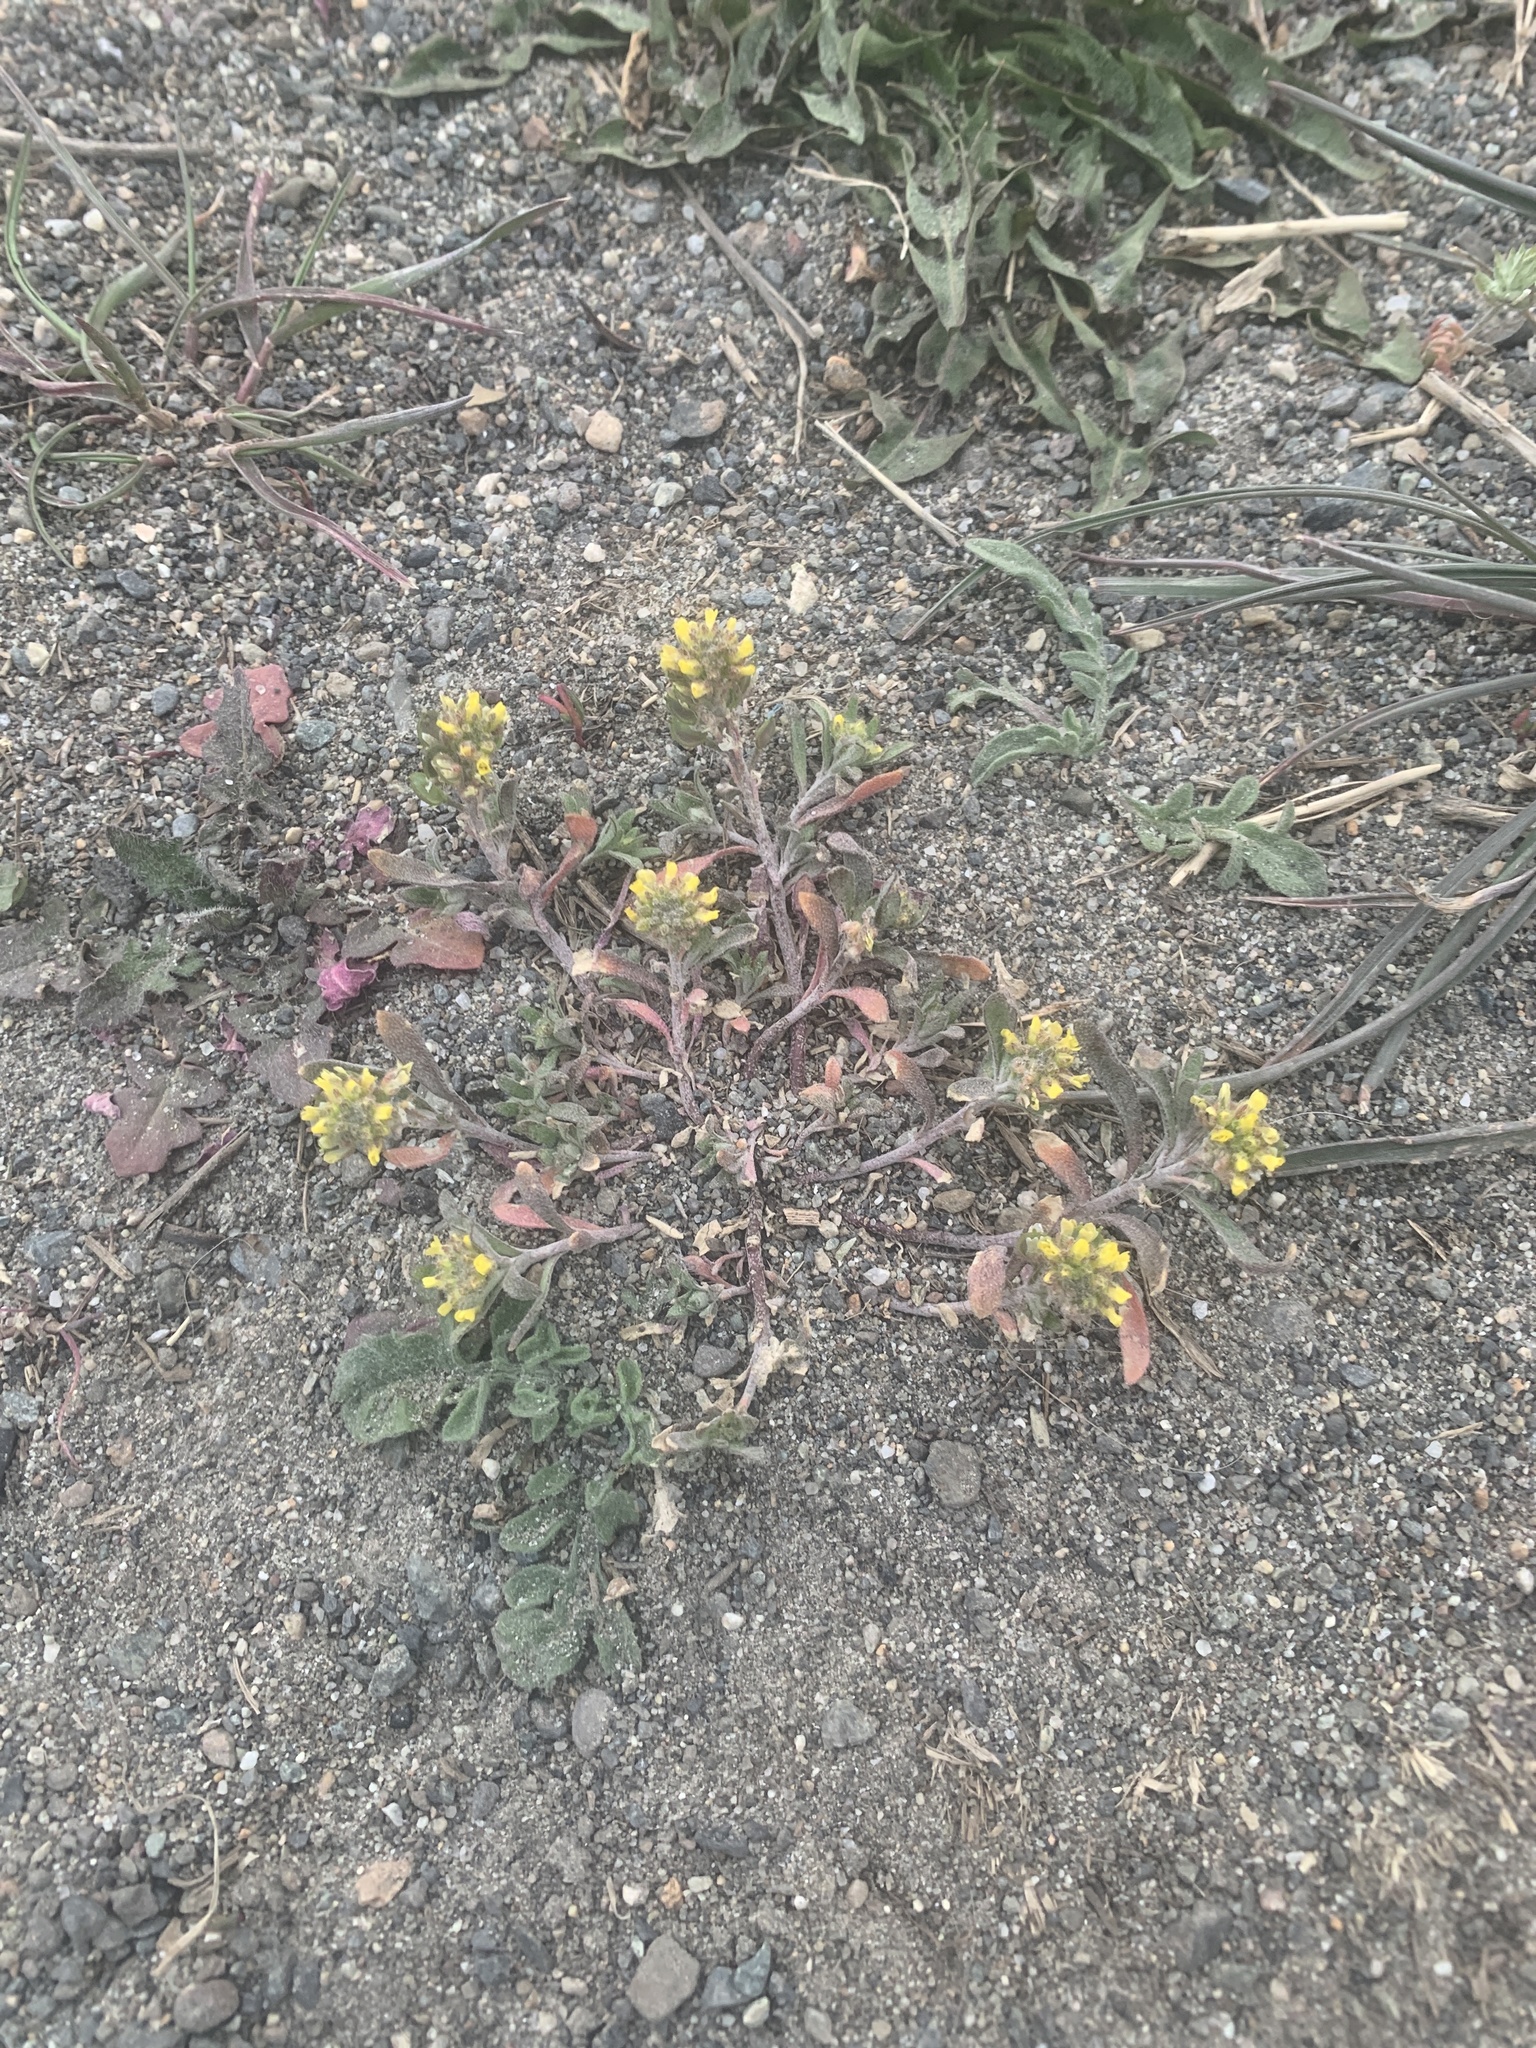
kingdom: Plantae
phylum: Tracheophyta
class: Magnoliopsida
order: Brassicales
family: Brassicaceae
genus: Alyssum
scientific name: Alyssum turkestanicum
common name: Desert alyssum
